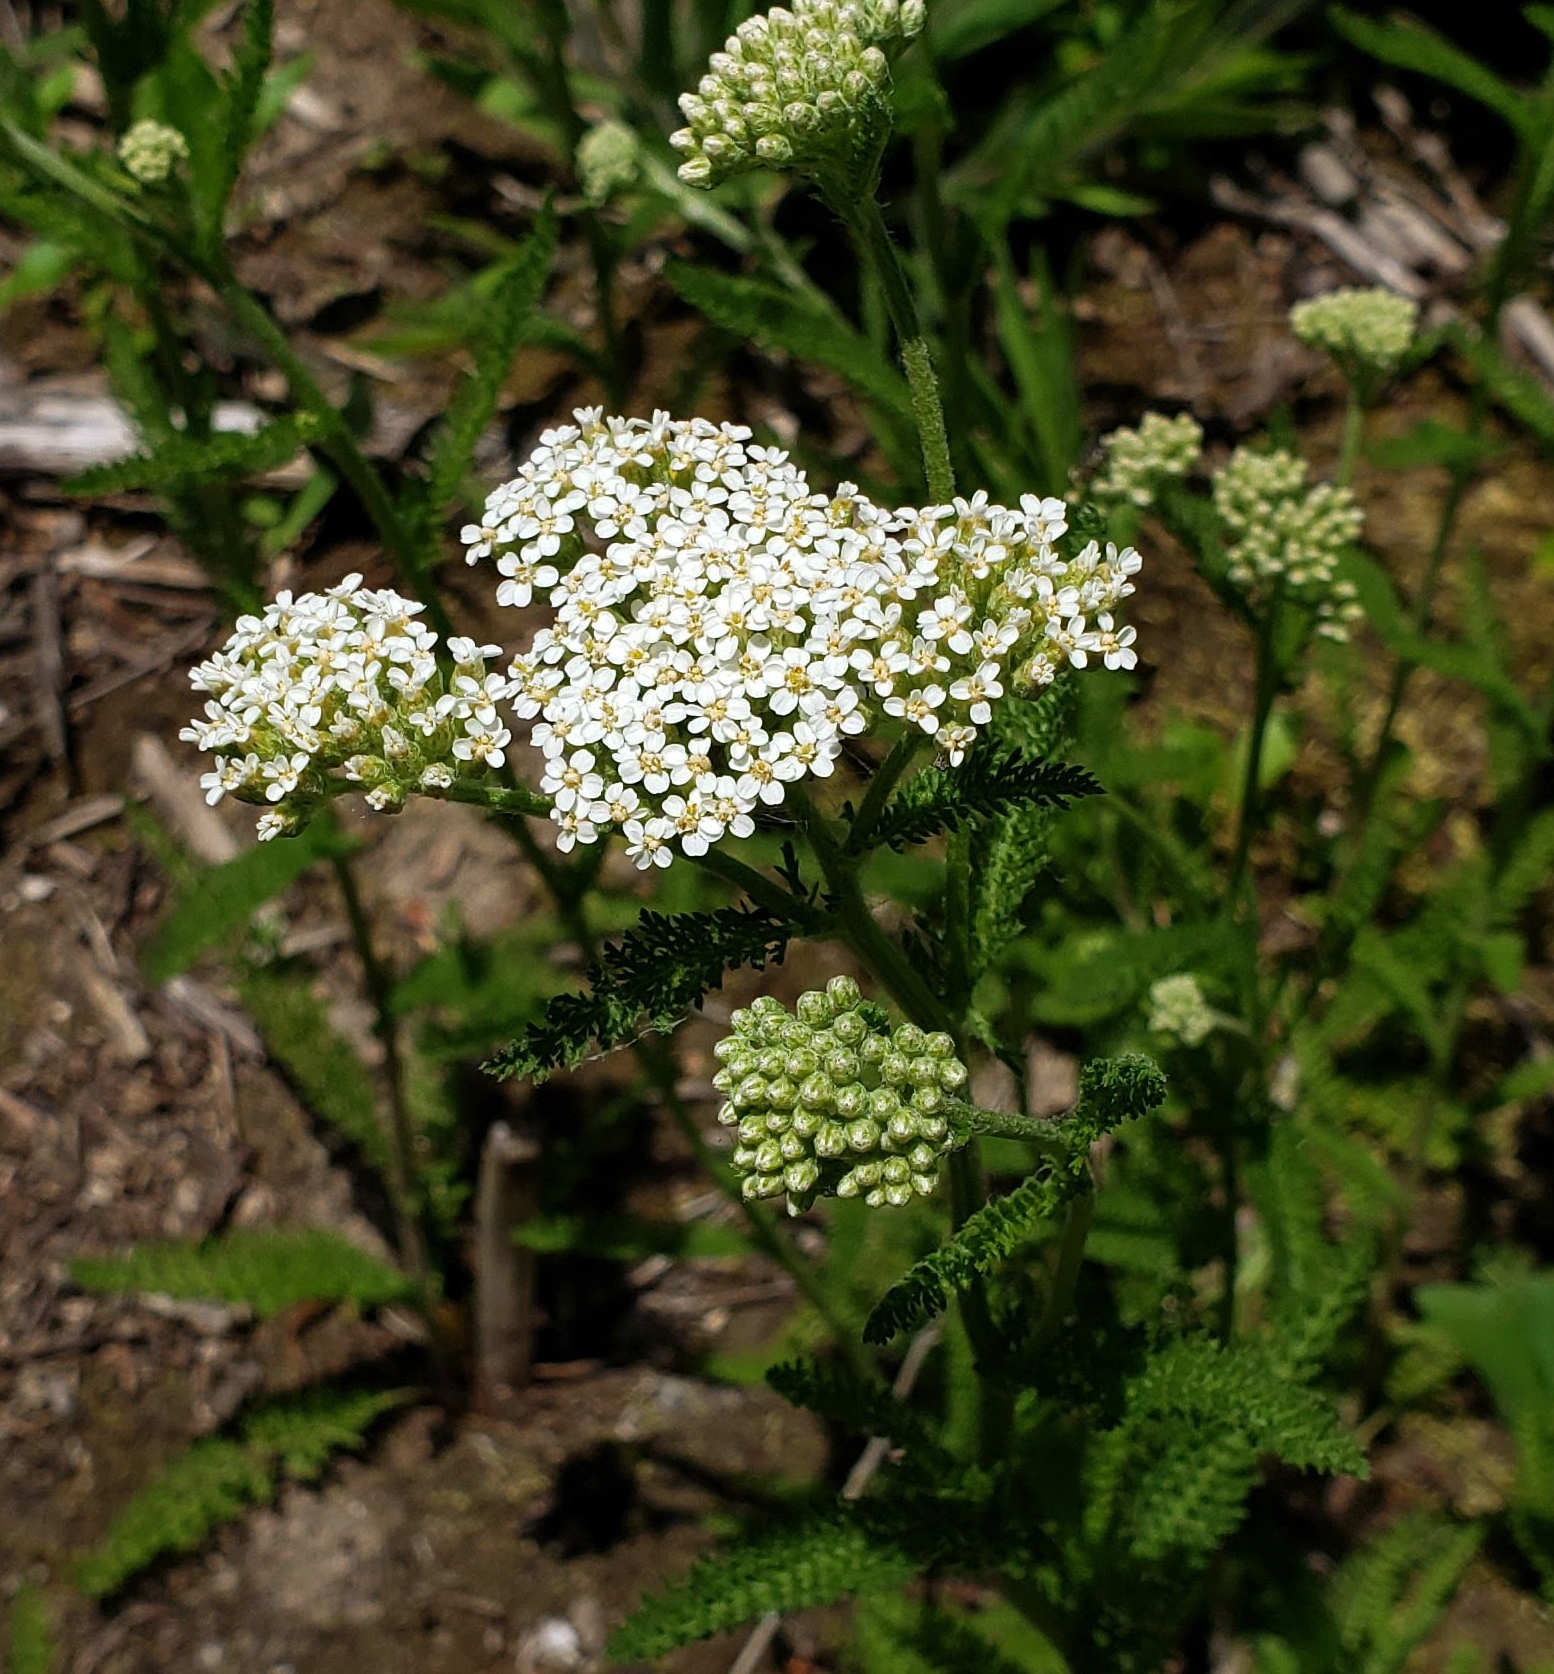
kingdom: Plantae
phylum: Tracheophyta
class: Magnoliopsida
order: Asterales
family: Asteraceae
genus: Achillea
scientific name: Achillea millefolium
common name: Yarrow
